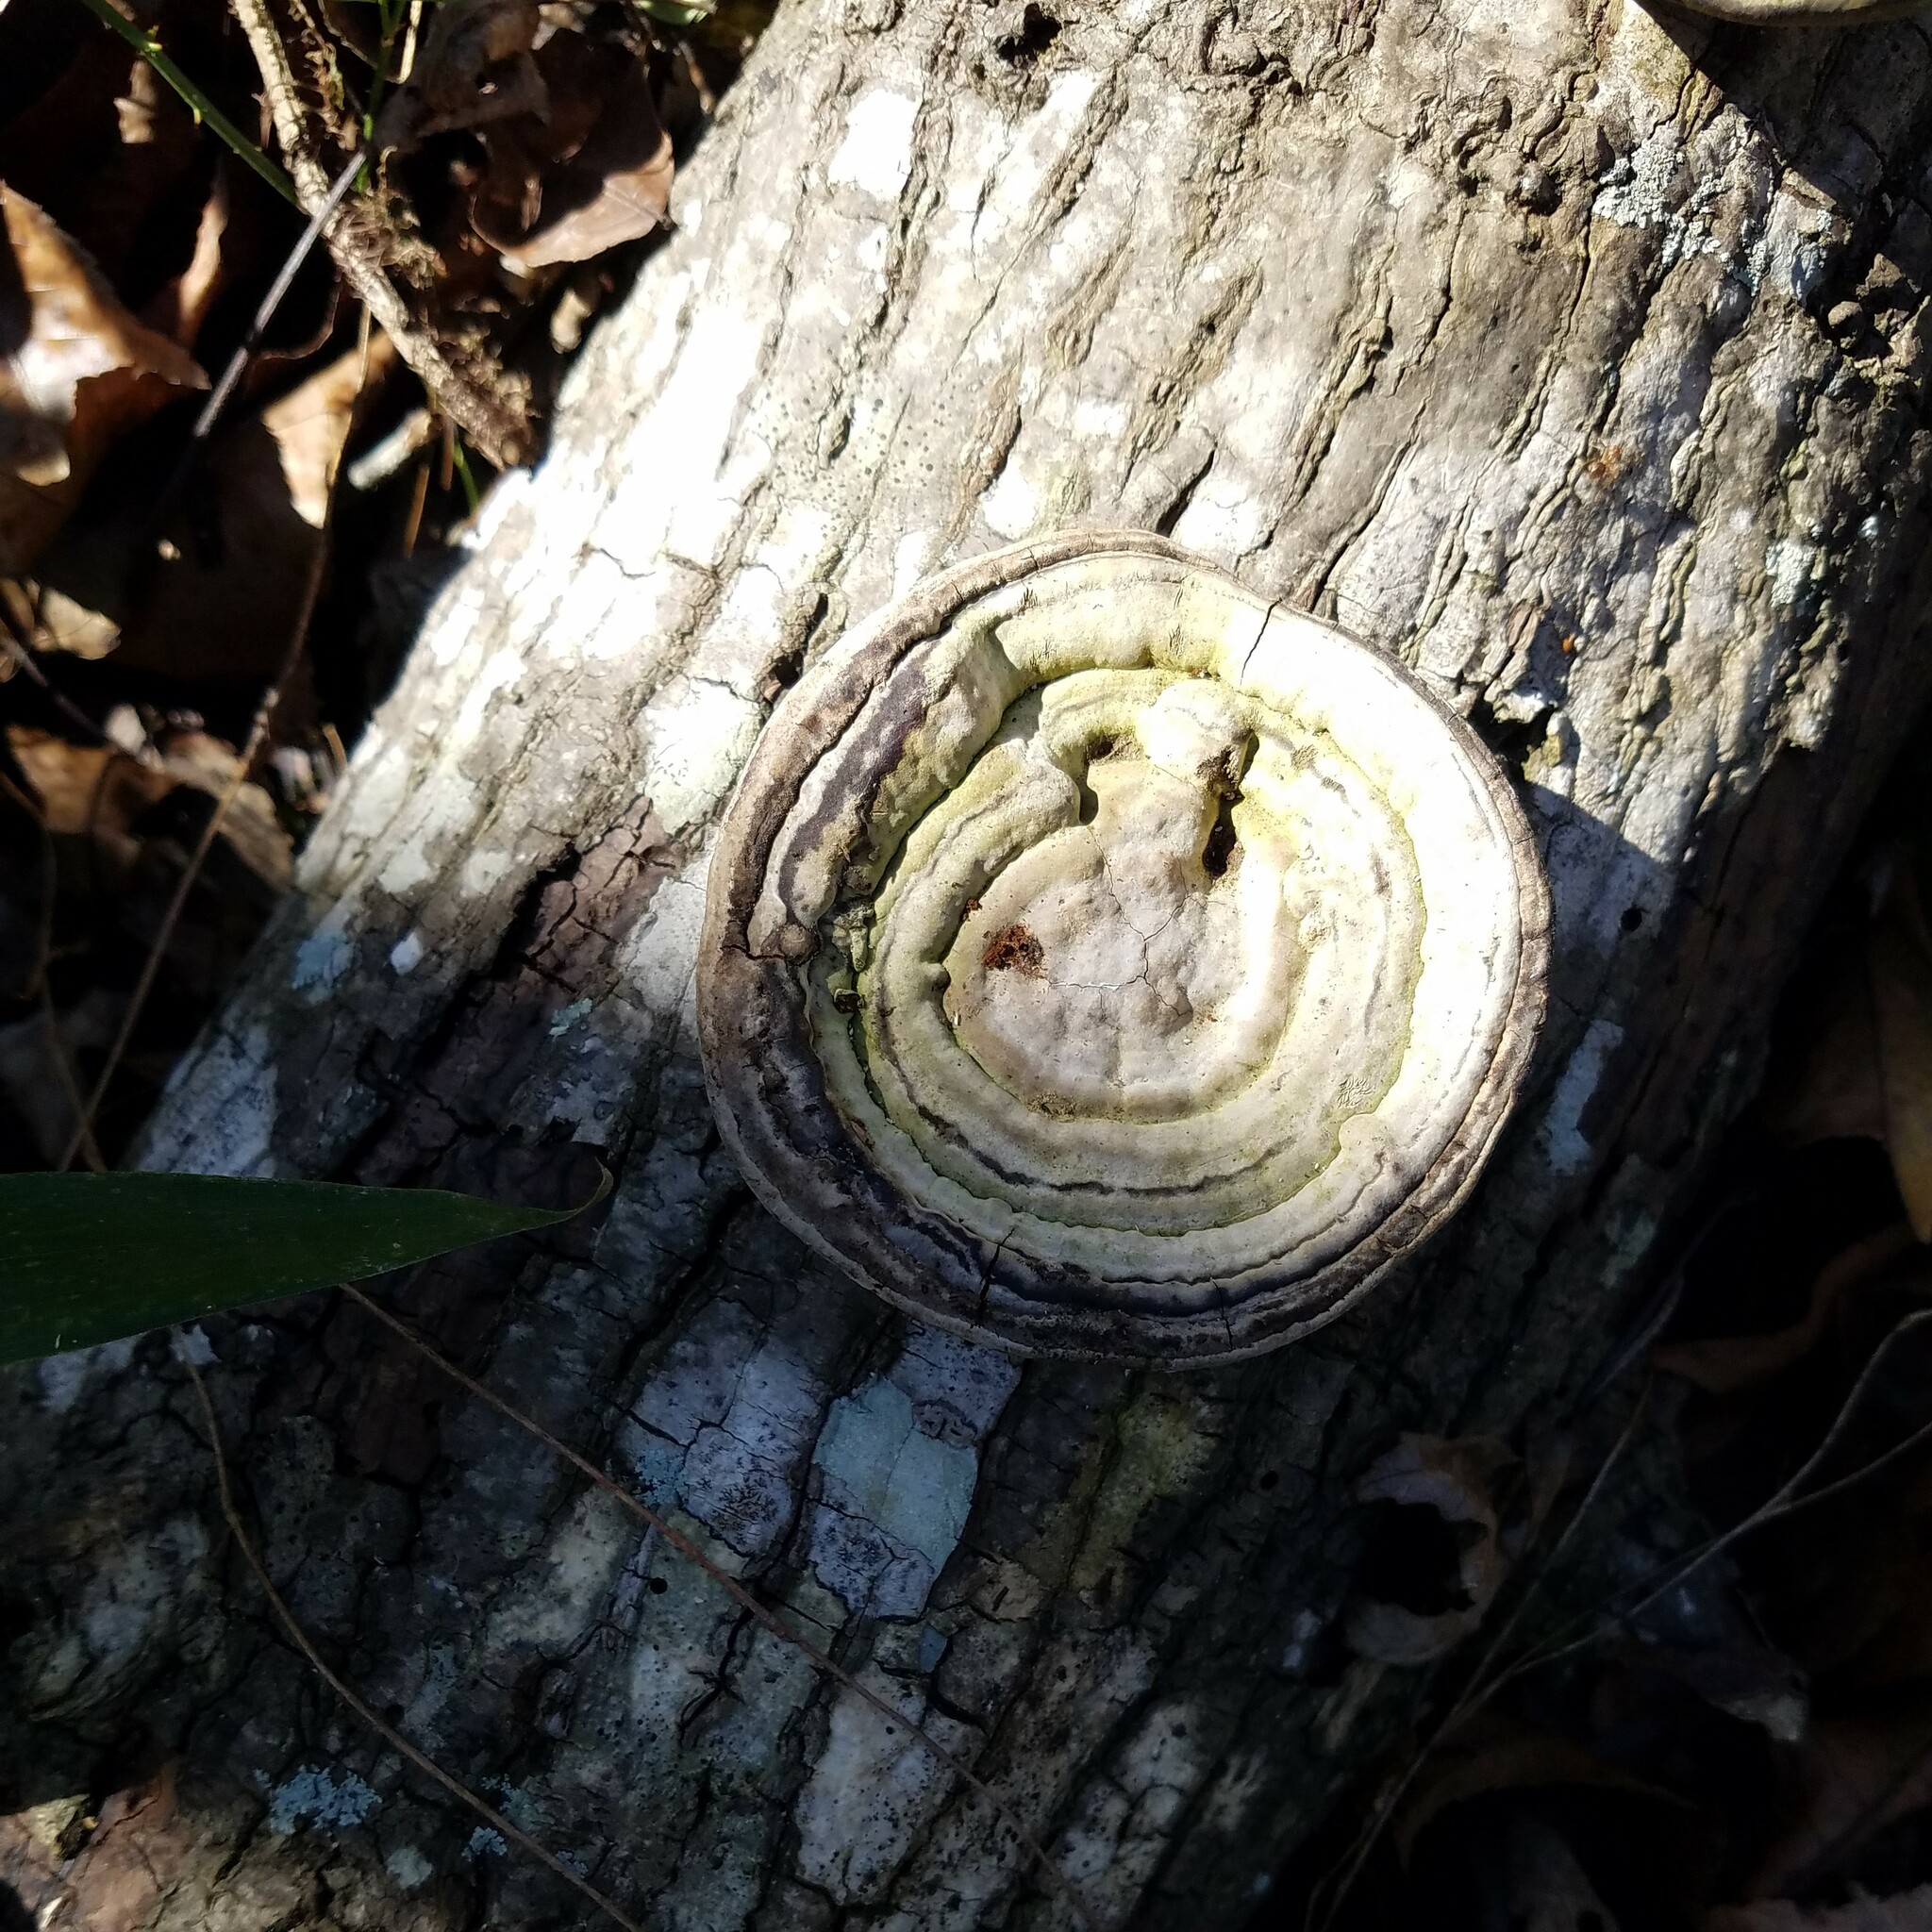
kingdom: Fungi
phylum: Basidiomycota
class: Agaricomycetes
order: Polyporales
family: Polyporaceae
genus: Fomes
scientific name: Fomes fasciatus
